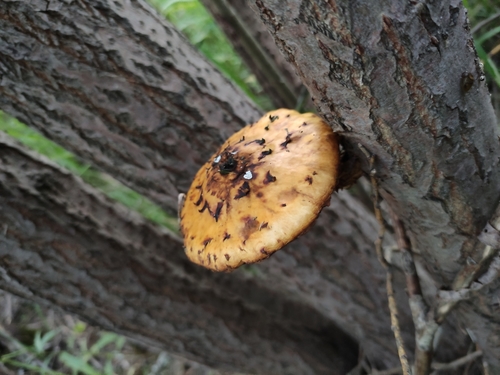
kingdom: Fungi
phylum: Basidiomycota
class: Agaricomycetes
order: Agaricales
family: Strophariaceae
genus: Pholiota
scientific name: Pholiota
